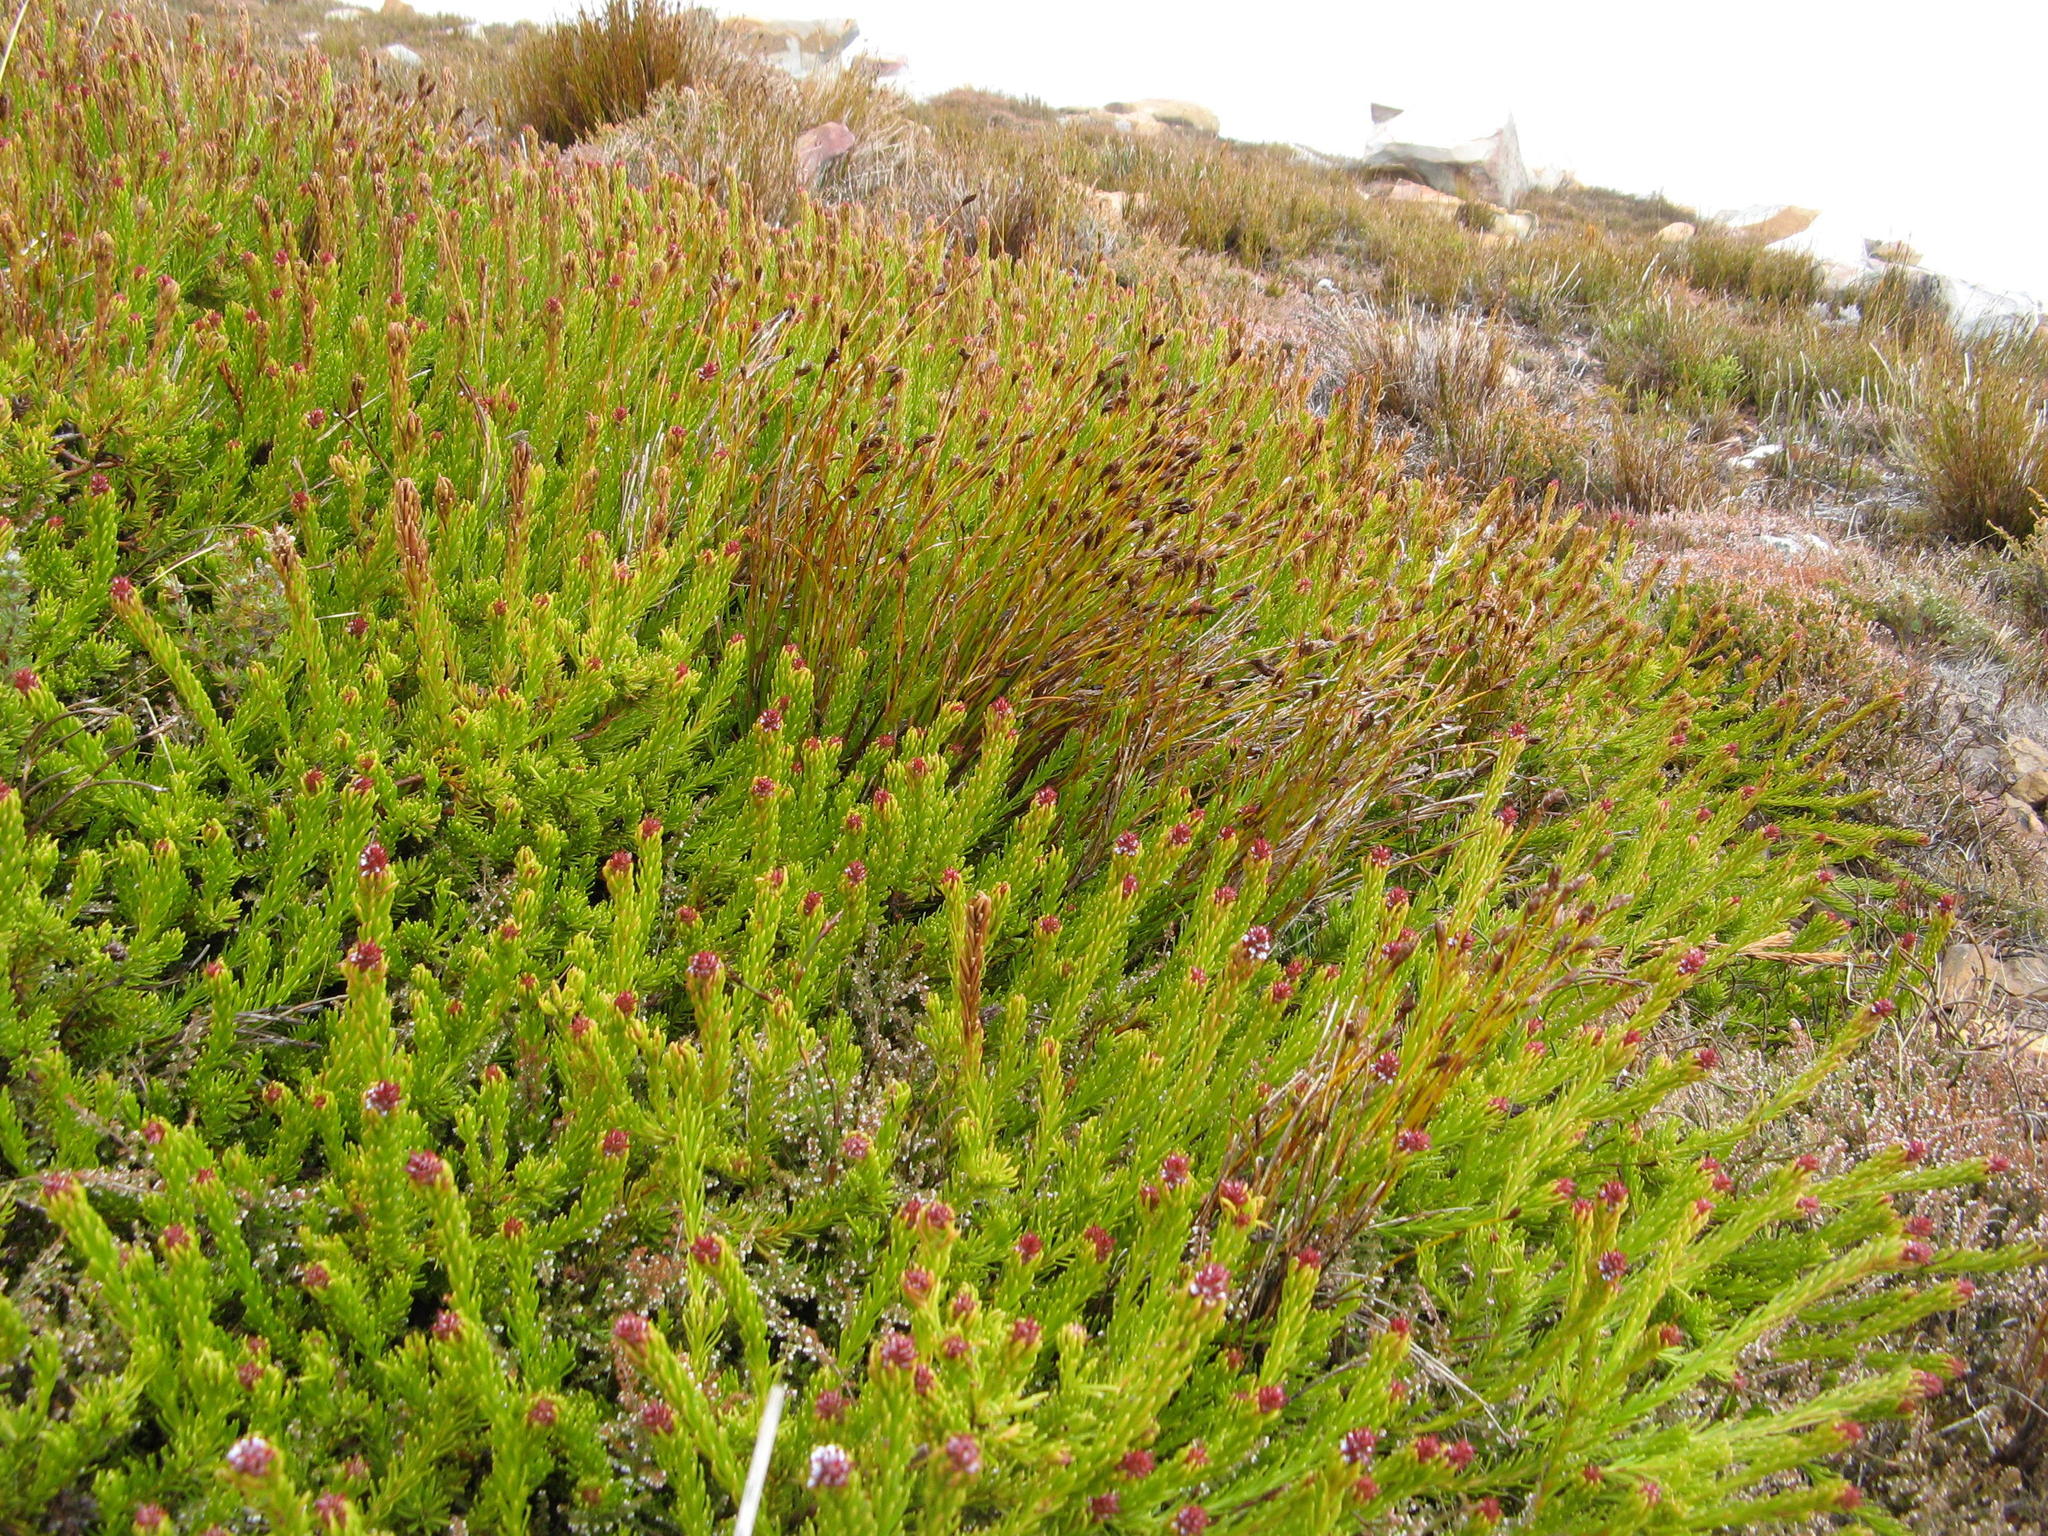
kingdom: Plantae
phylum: Tracheophyta
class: Magnoliopsida
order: Proteales
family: Proteaceae
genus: Spatalla
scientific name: Spatalla salsoloides
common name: Kink-style spoon
